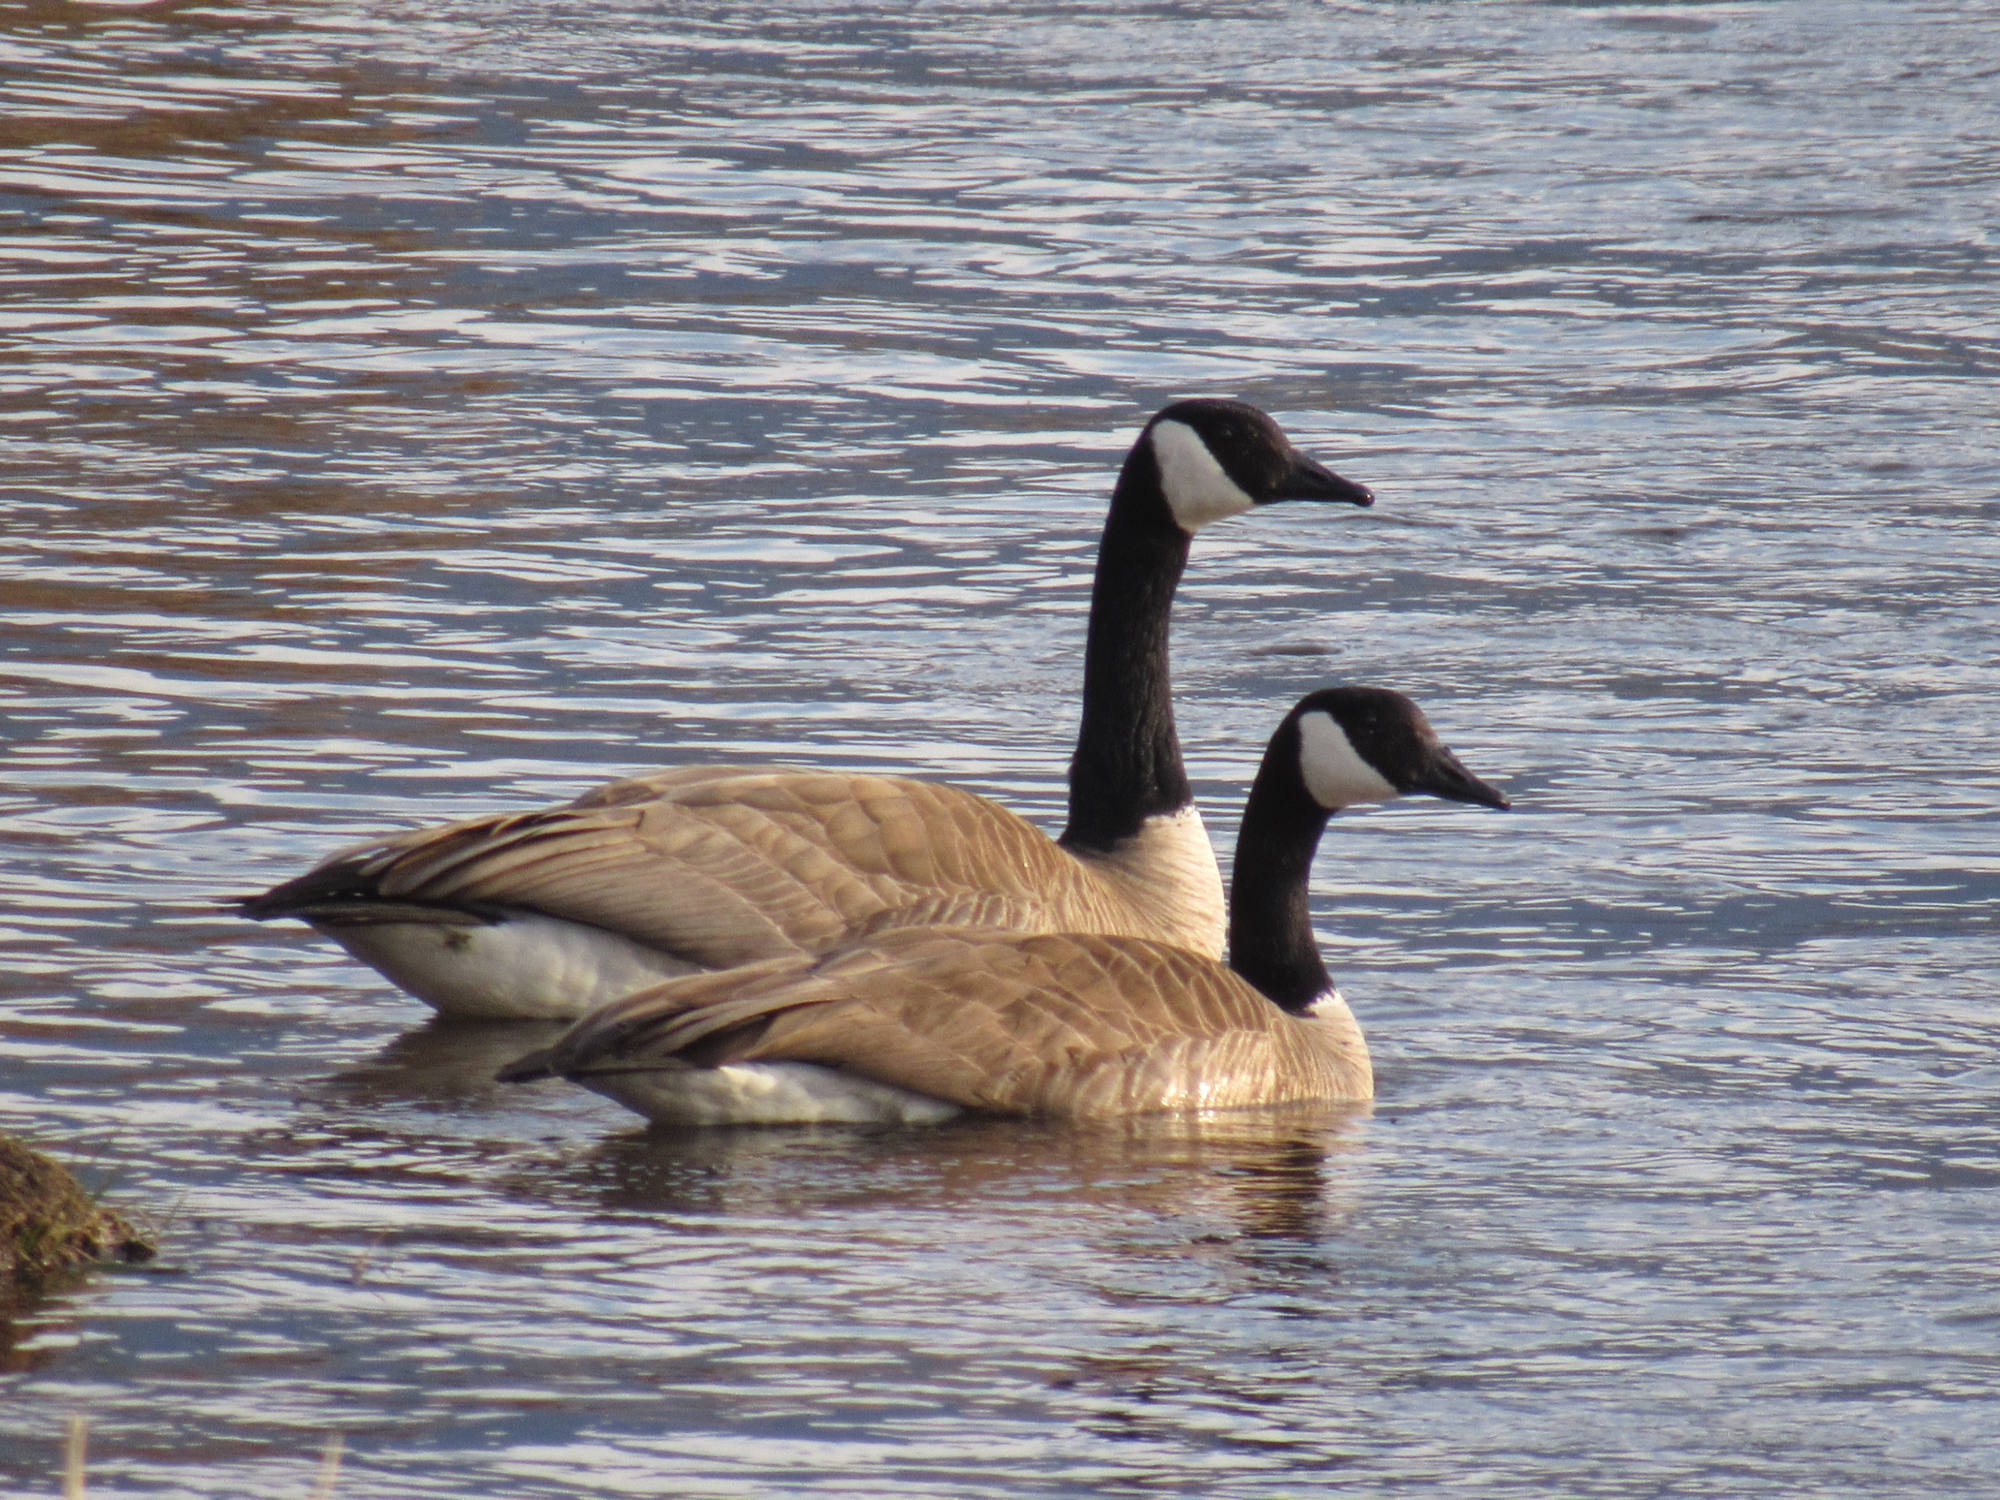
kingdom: Animalia
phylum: Chordata
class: Aves
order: Anseriformes
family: Anatidae
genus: Branta
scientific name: Branta canadensis
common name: Canada goose
